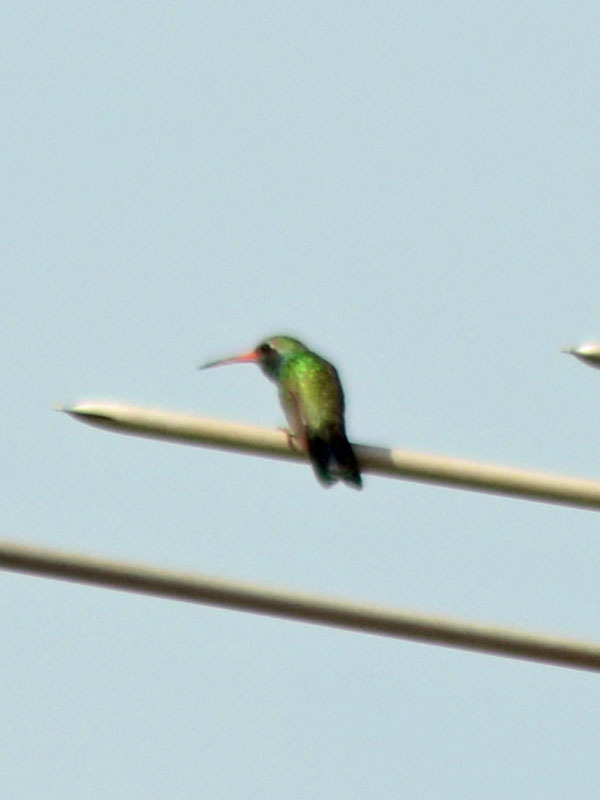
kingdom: Animalia
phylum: Chordata
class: Aves
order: Apodiformes
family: Trochilidae
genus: Cynanthus
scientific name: Cynanthus latirostris
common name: Broad-billed hummingbird
